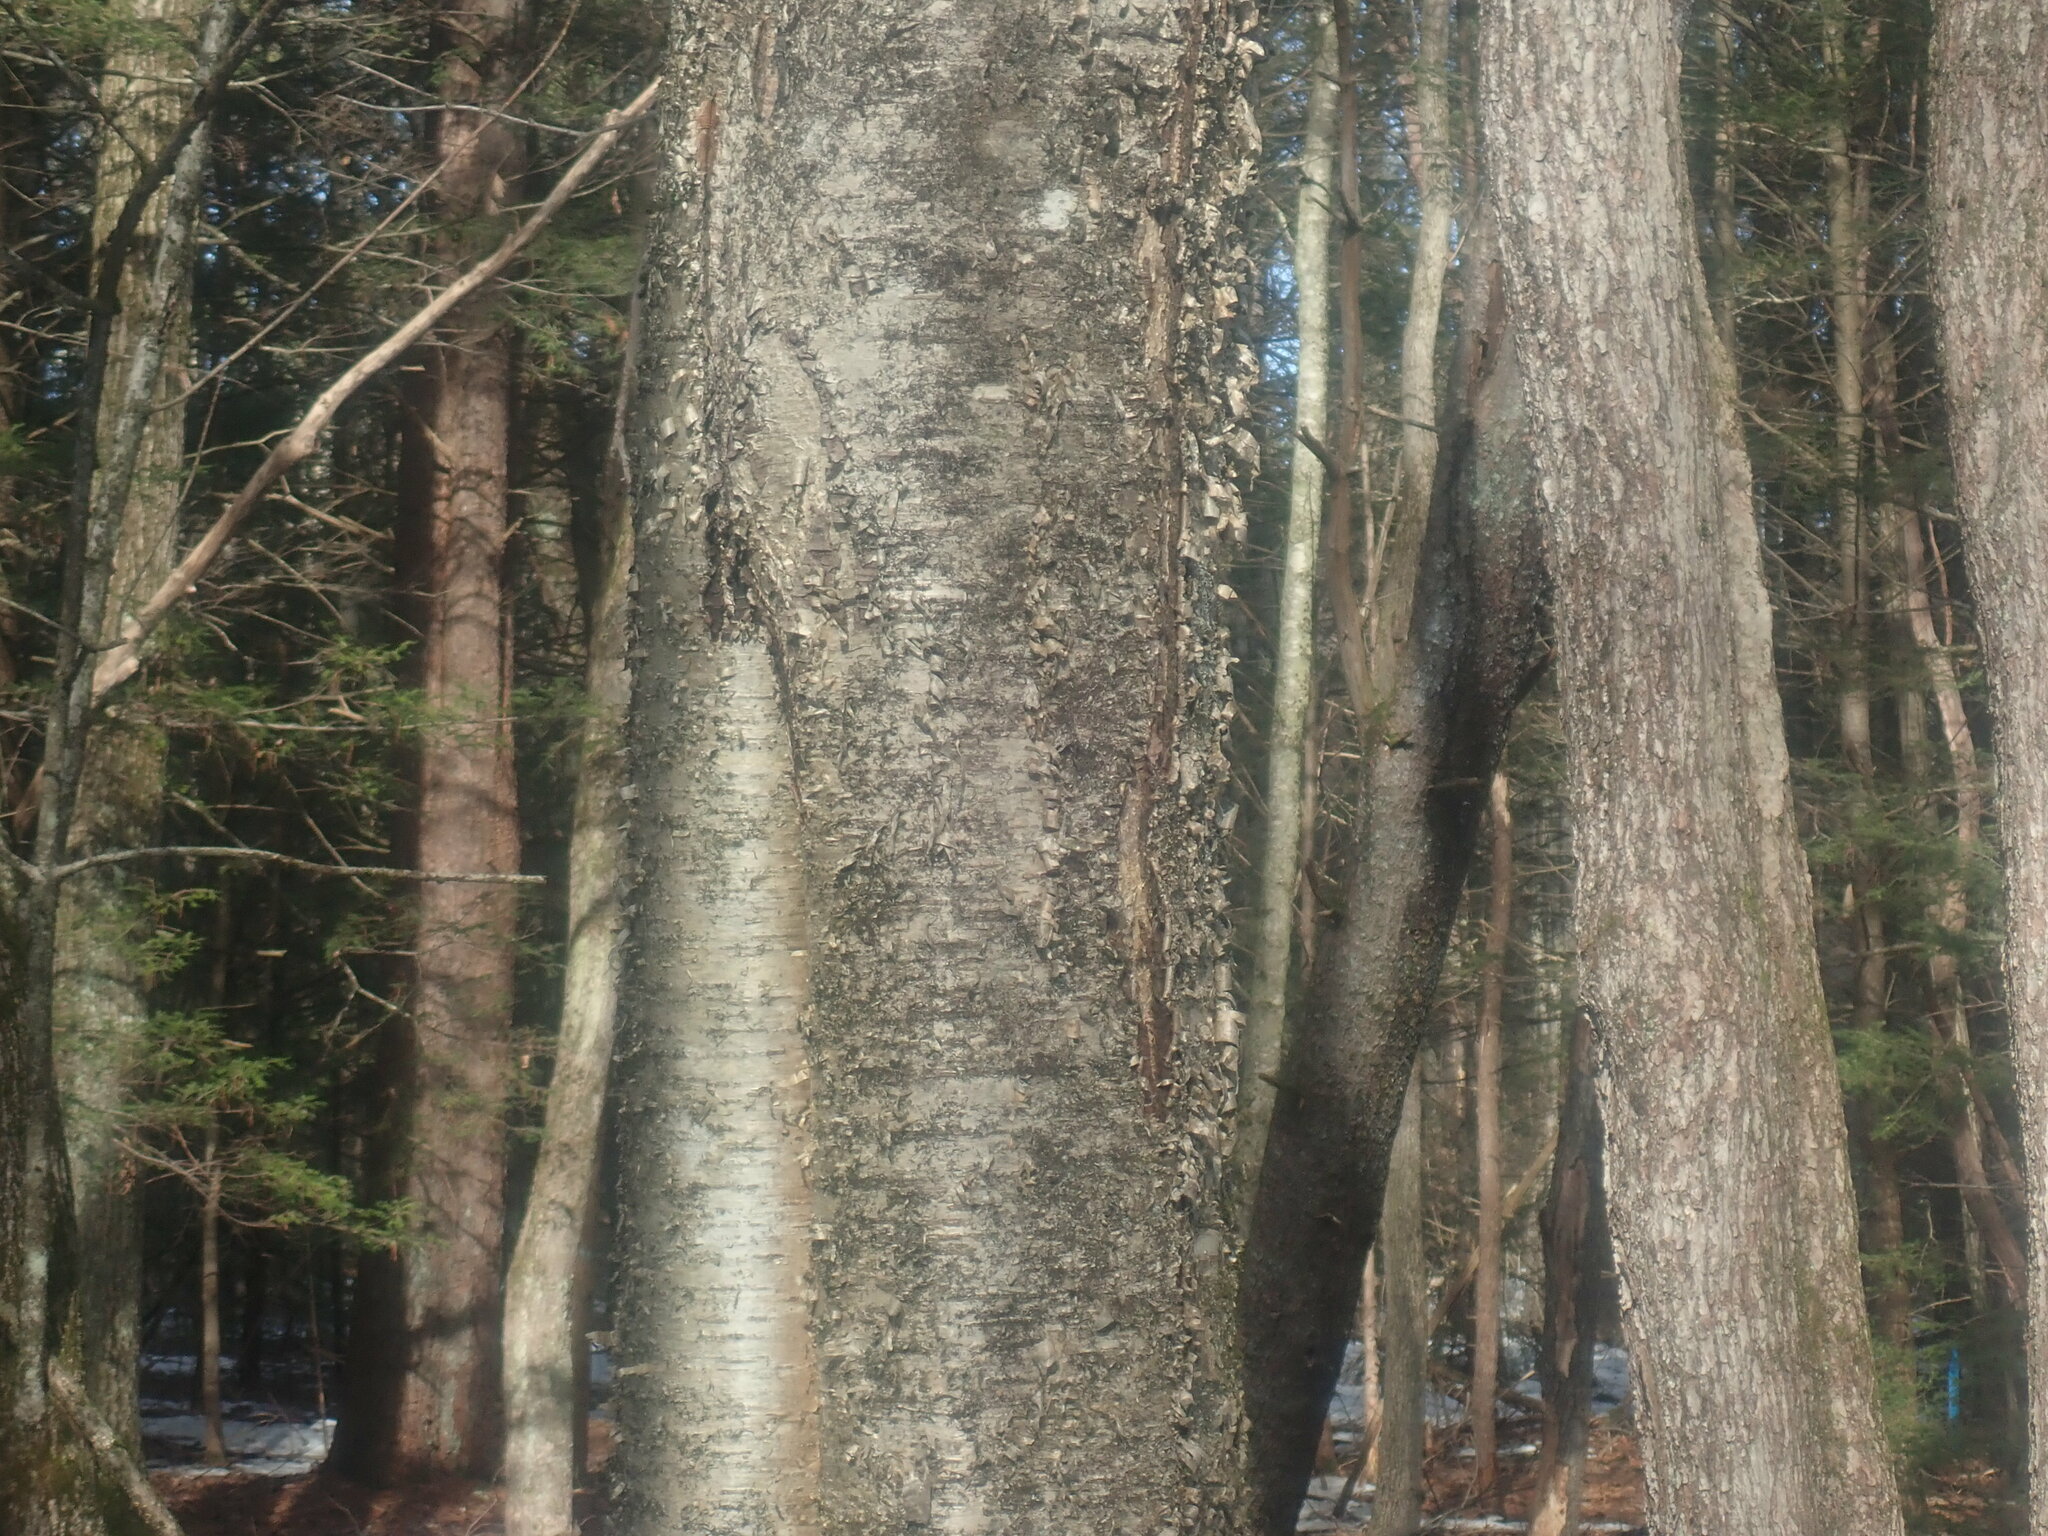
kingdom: Plantae
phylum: Tracheophyta
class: Magnoliopsida
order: Fagales
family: Betulaceae
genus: Betula
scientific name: Betula alleghaniensis
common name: Yellow birch
